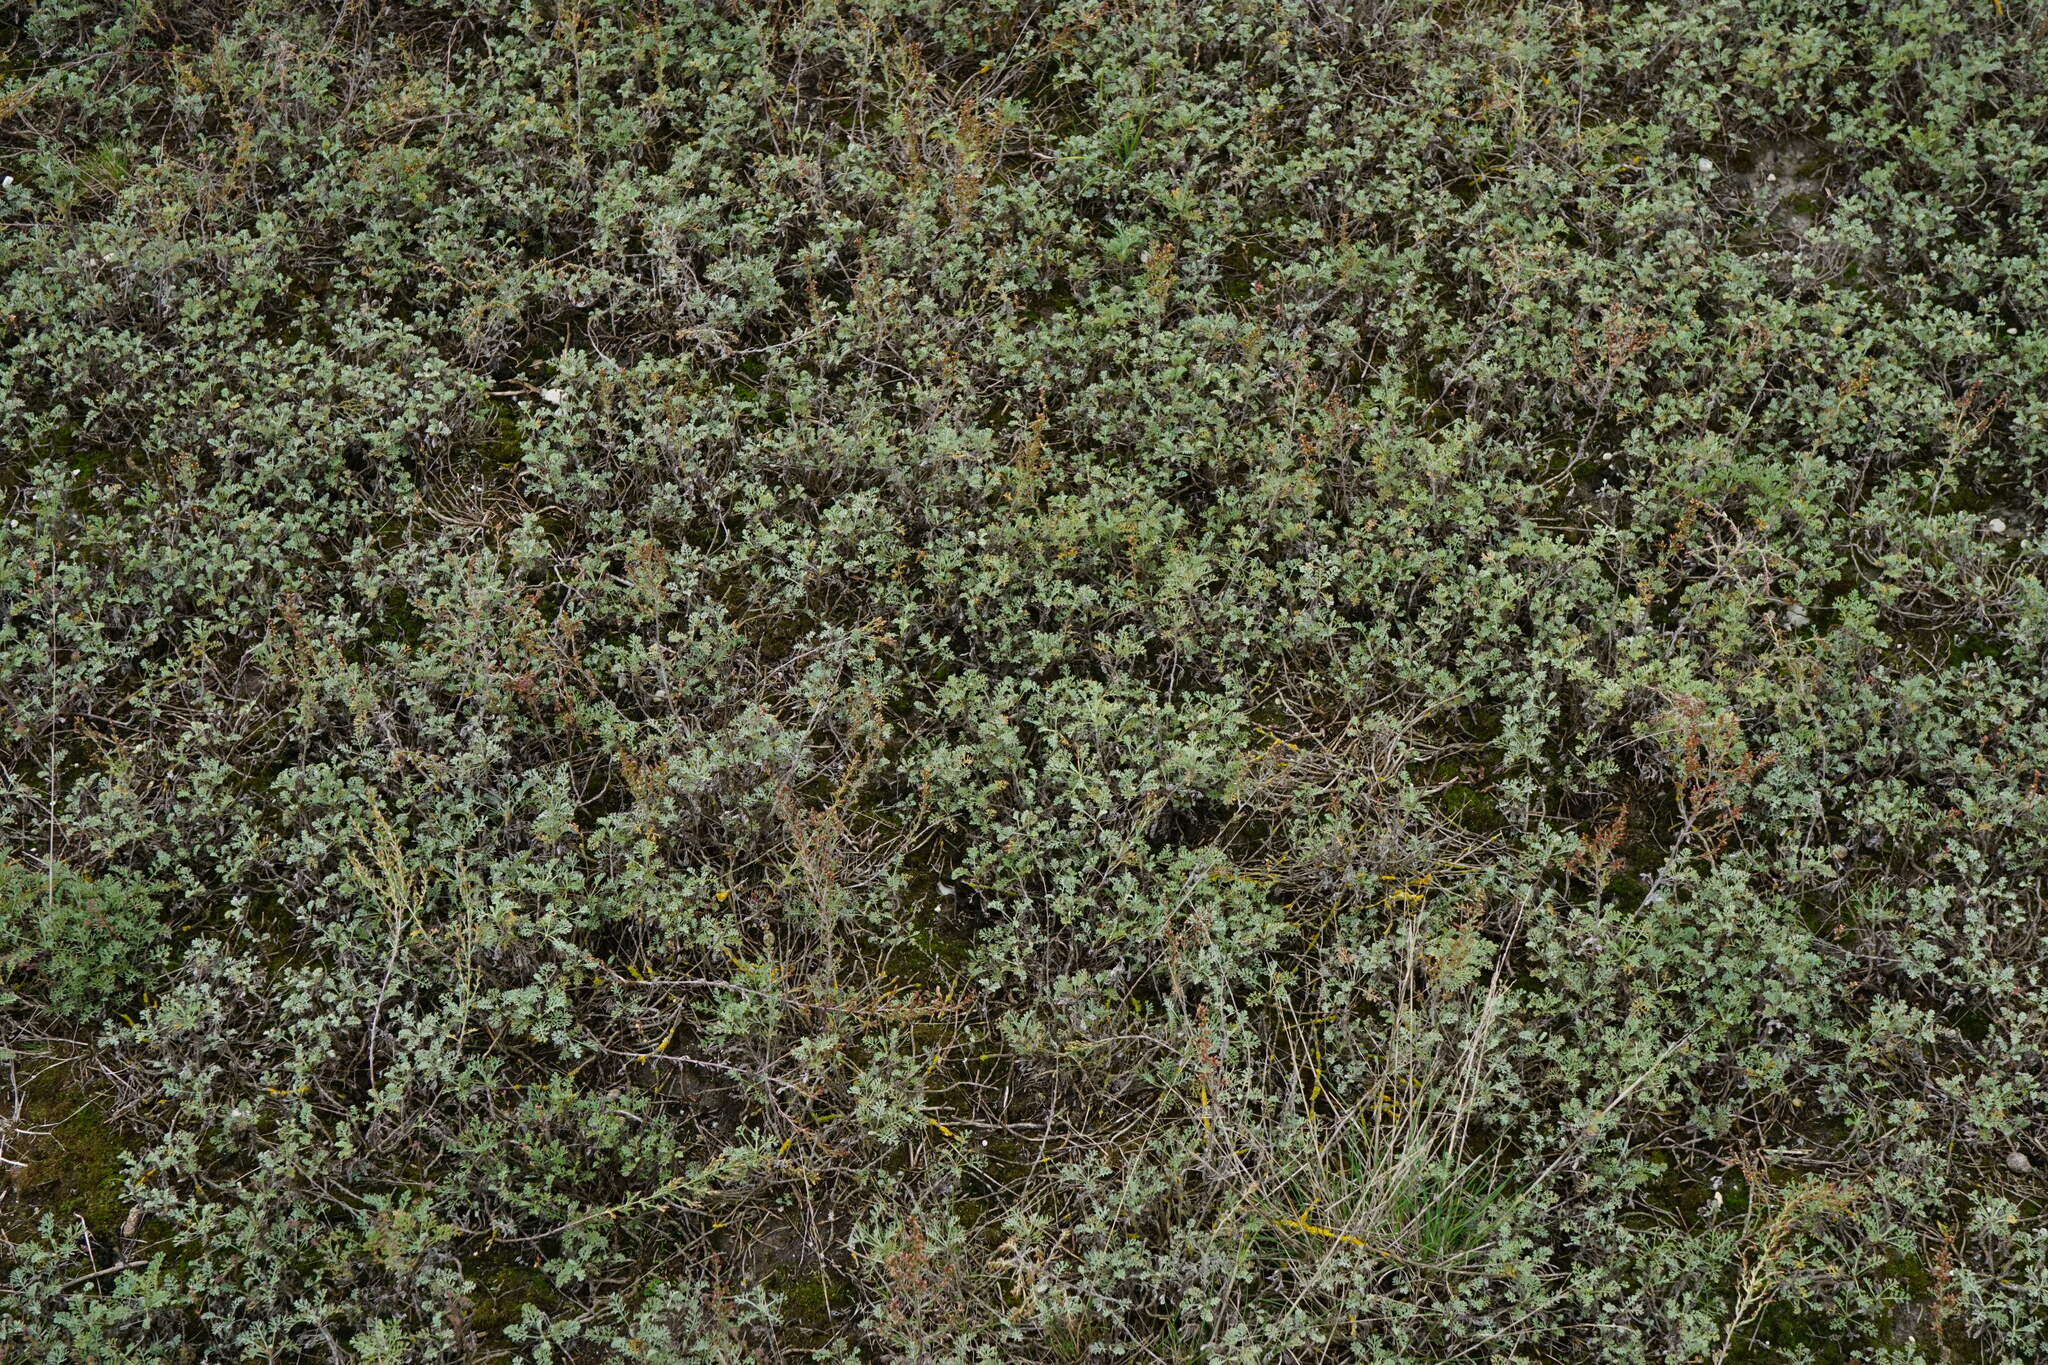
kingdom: Plantae
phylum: Tracheophyta
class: Magnoliopsida
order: Asterales
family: Asteraceae
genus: Artemisia
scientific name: Artemisia santonicum
